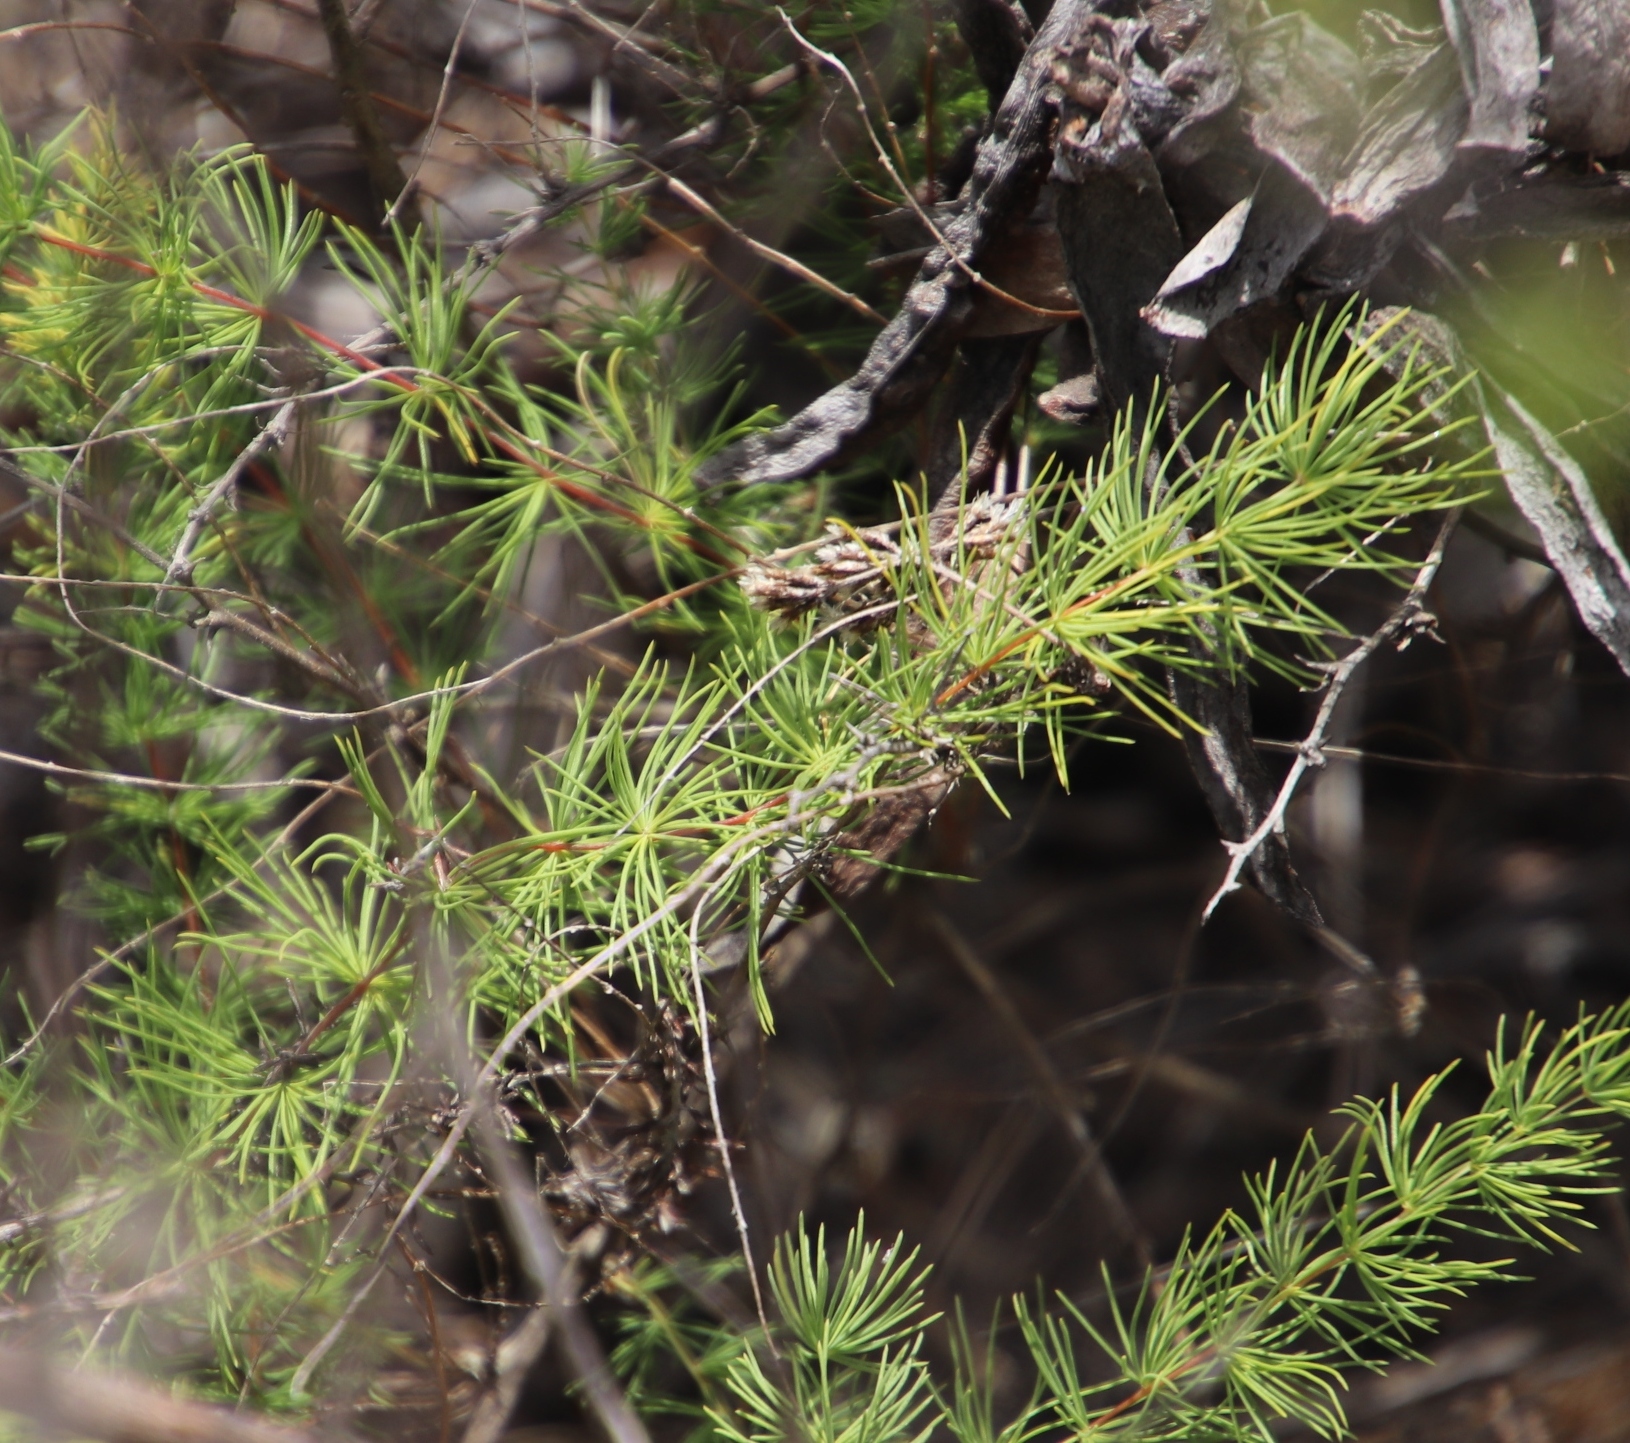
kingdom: Plantae
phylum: Tracheophyta
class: Liliopsida
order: Asparagales
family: Asparagaceae
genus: Asparagus
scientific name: Asparagus rubicundus
